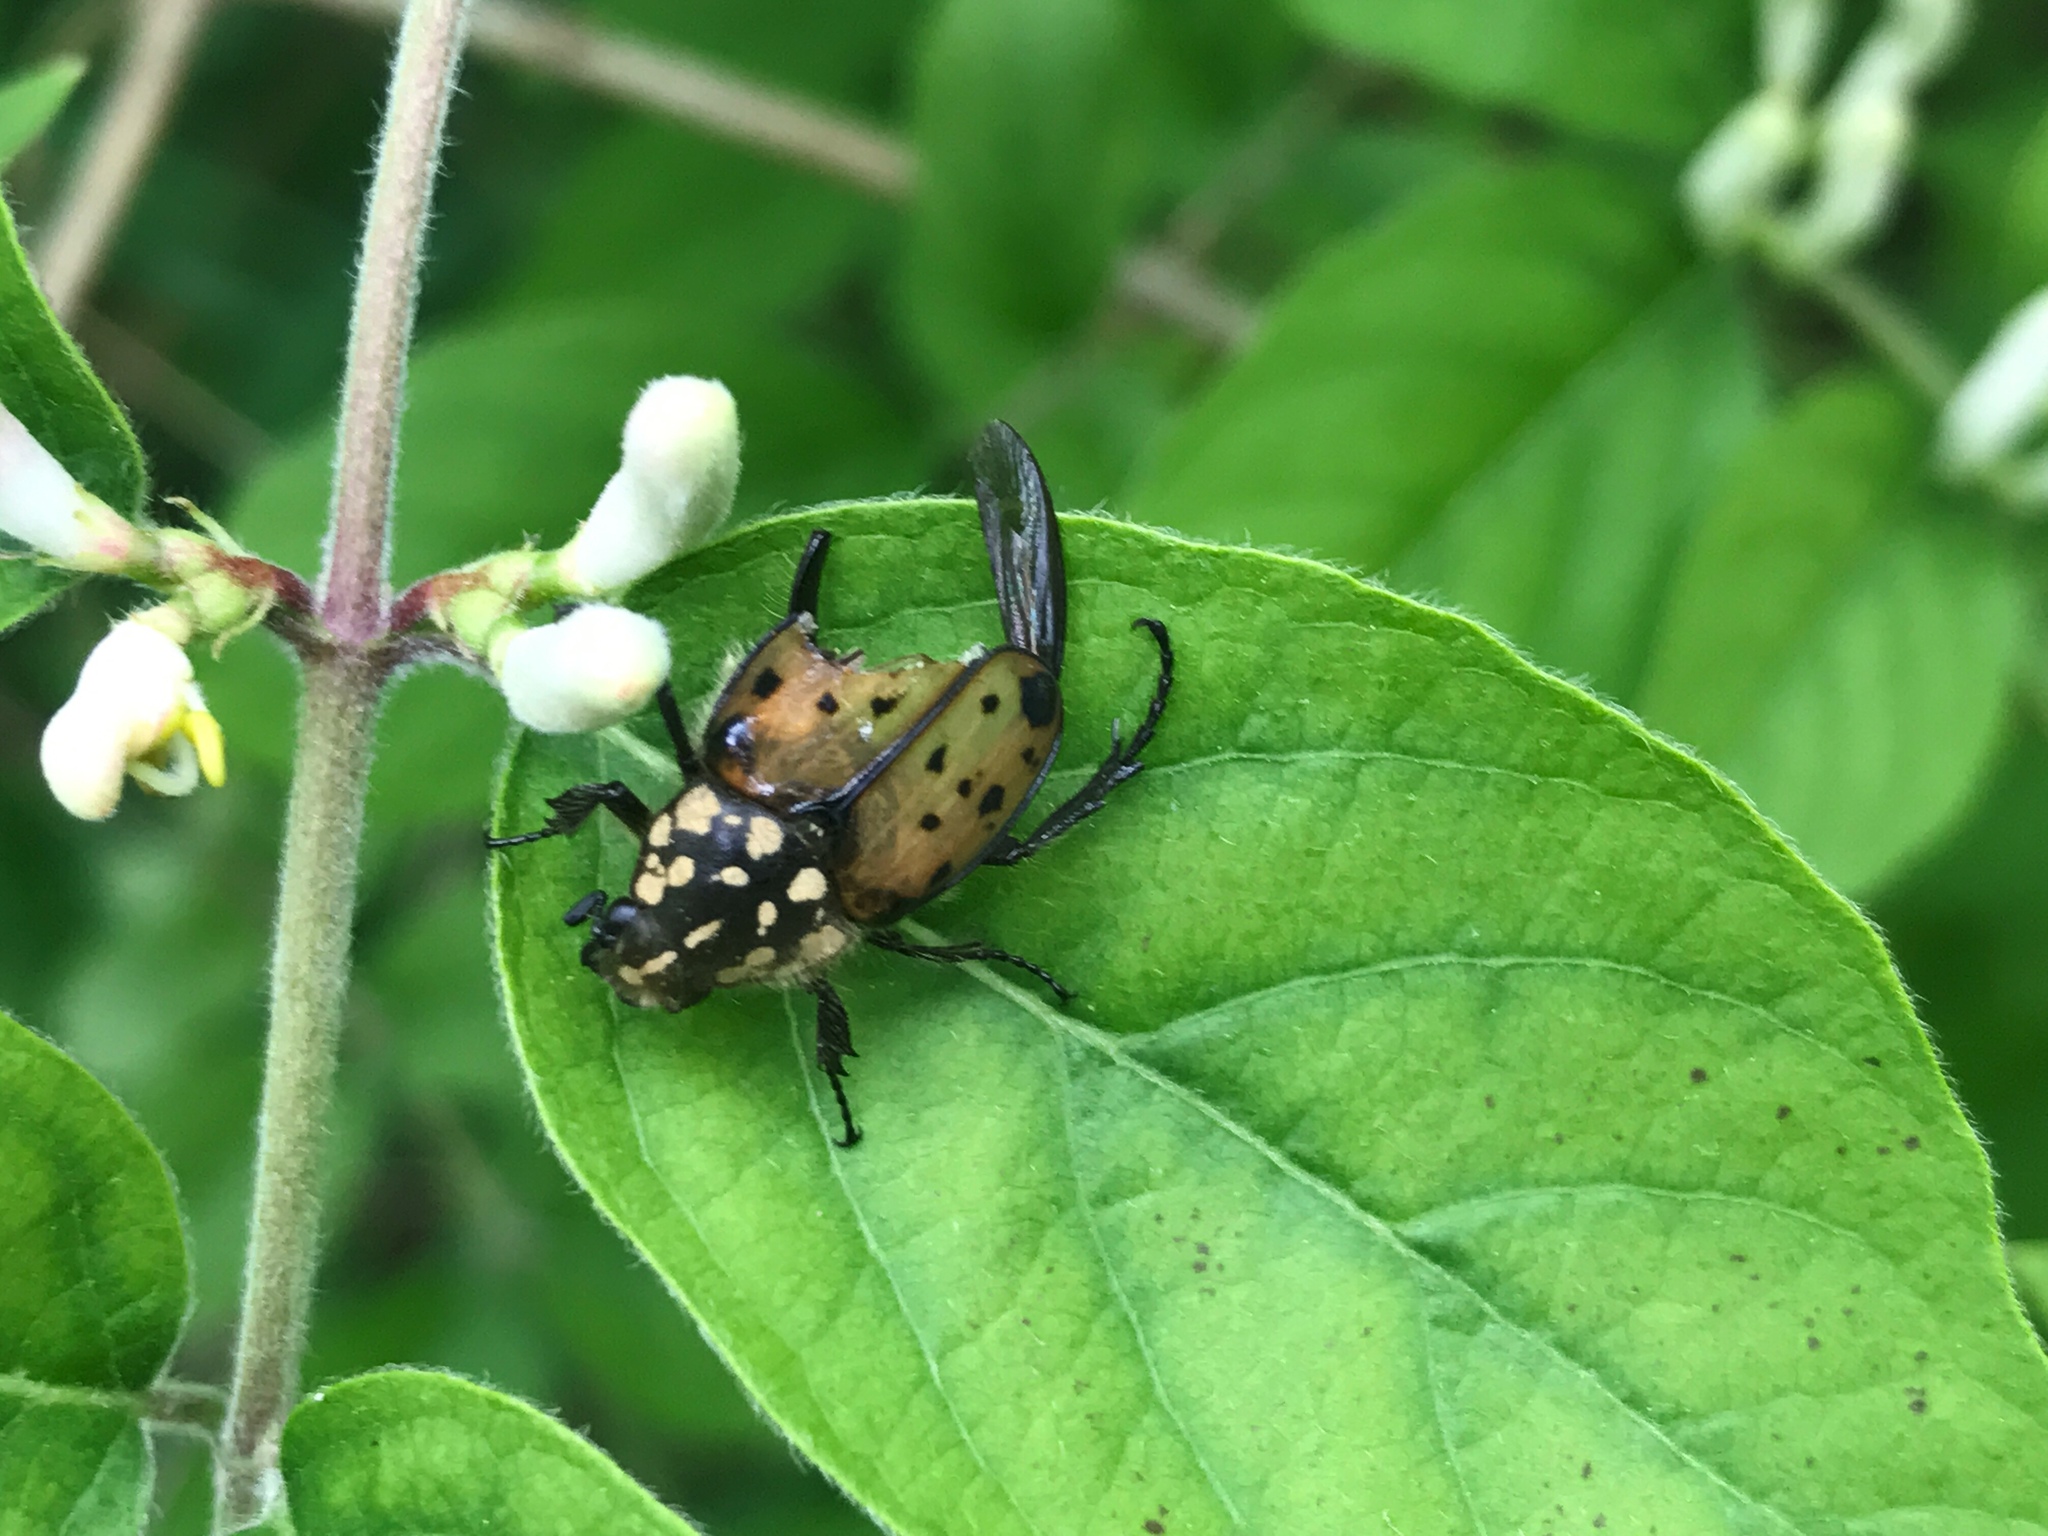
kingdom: Animalia
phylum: Arthropoda
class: Insecta
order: Coleoptera
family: Scarabaeidae
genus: Gnorimella
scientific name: Gnorimella maculosa
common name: Maculate flower beetle
